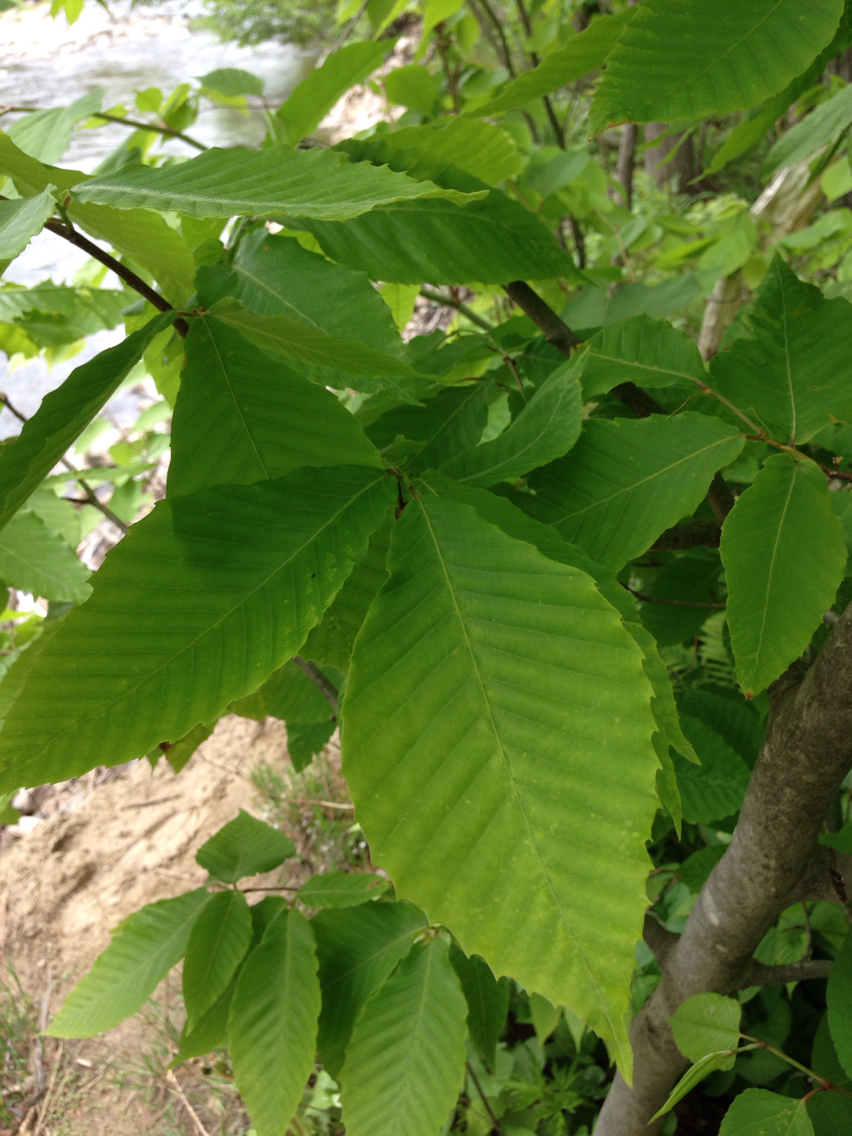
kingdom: Plantae
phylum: Tracheophyta
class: Magnoliopsida
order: Fagales
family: Fagaceae
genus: Fagus
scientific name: Fagus grandifolia
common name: American beech
